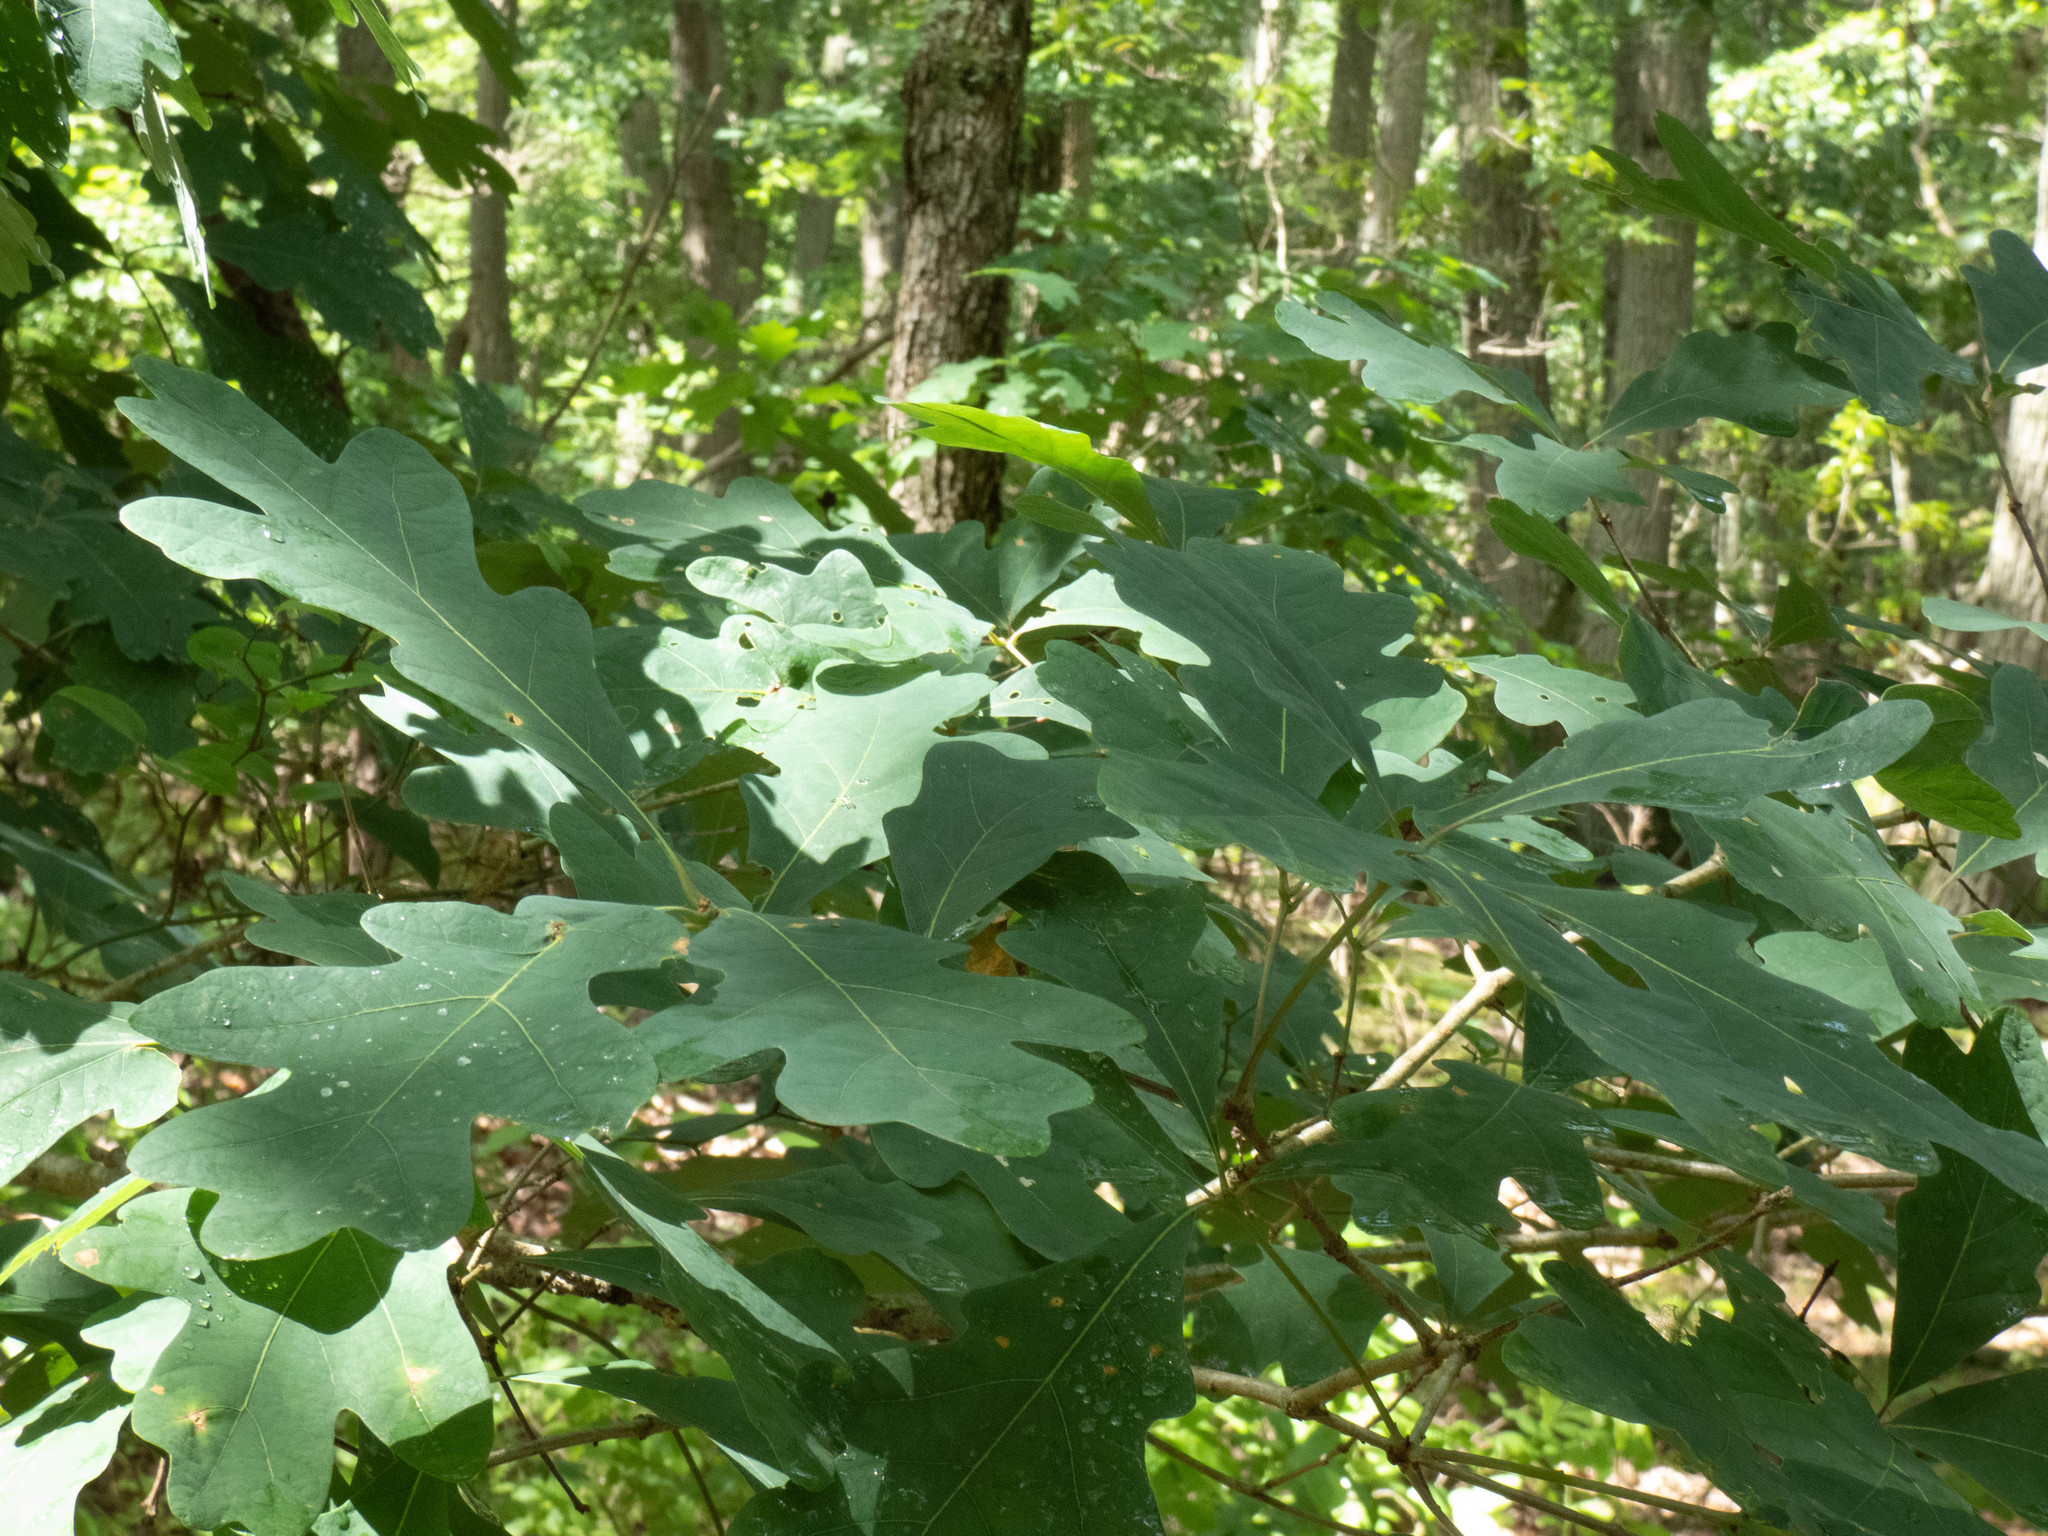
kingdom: Plantae
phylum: Tracheophyta
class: Magnoliopsida
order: Fagales
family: Fagaceae
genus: Quercus
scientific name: Quercus alba
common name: White oak
